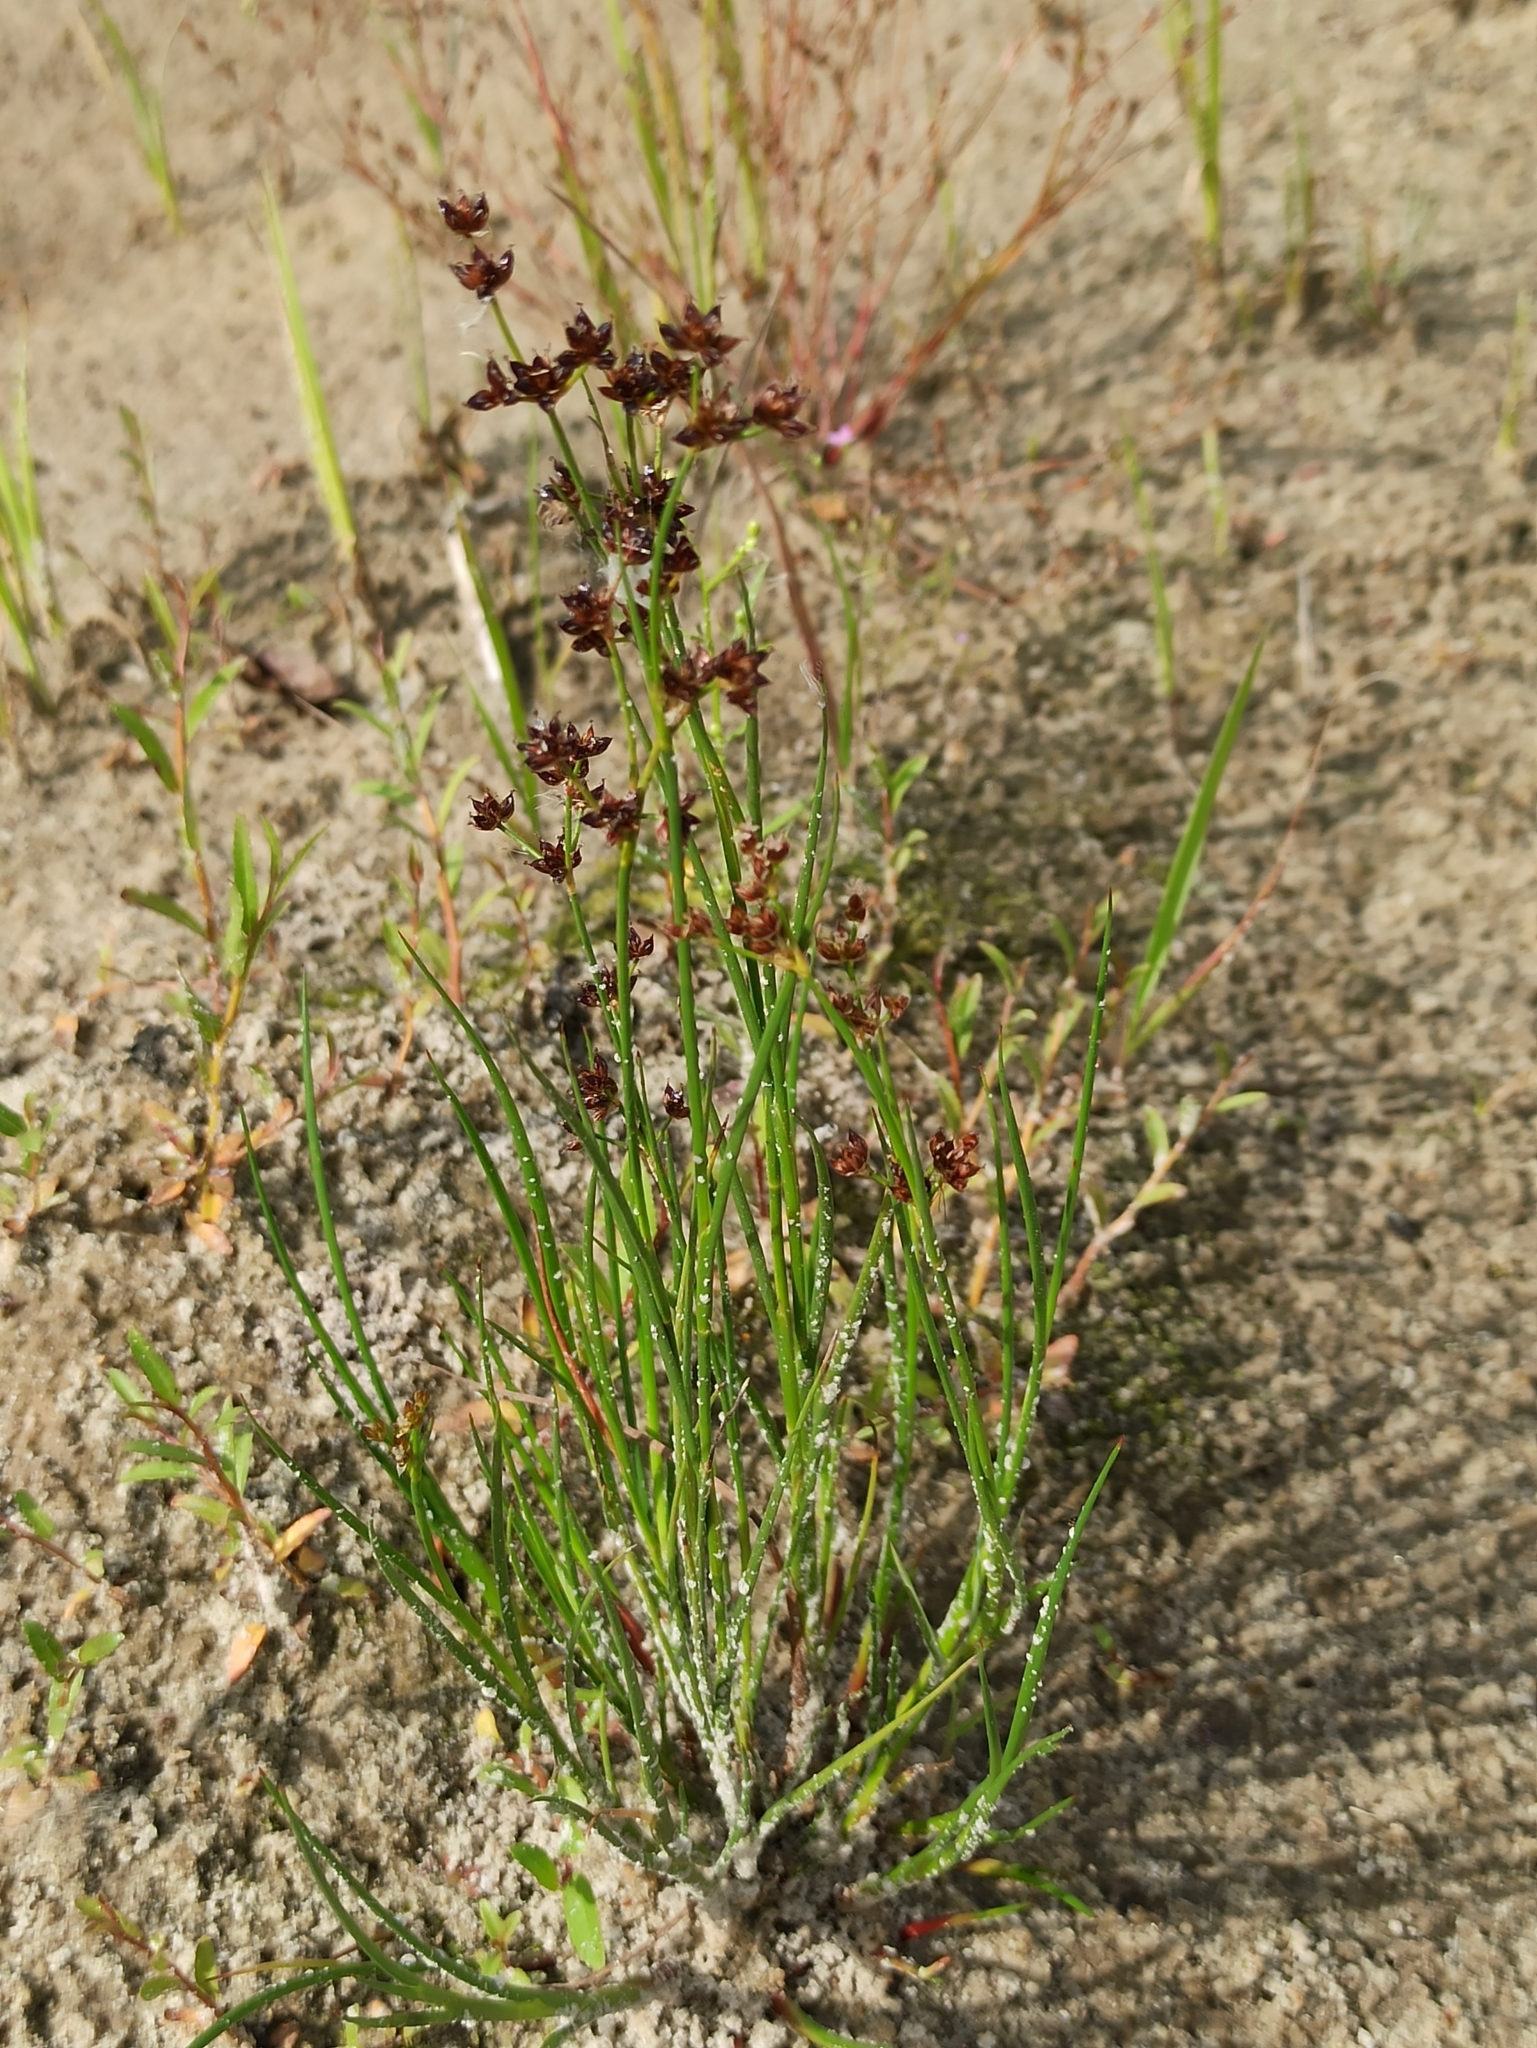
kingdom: Plantae
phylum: Tracheophyta
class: Liliopsida
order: Poales
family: Juncaceae
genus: Juncus
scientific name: Juncus articulatus
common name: Jointed rush
